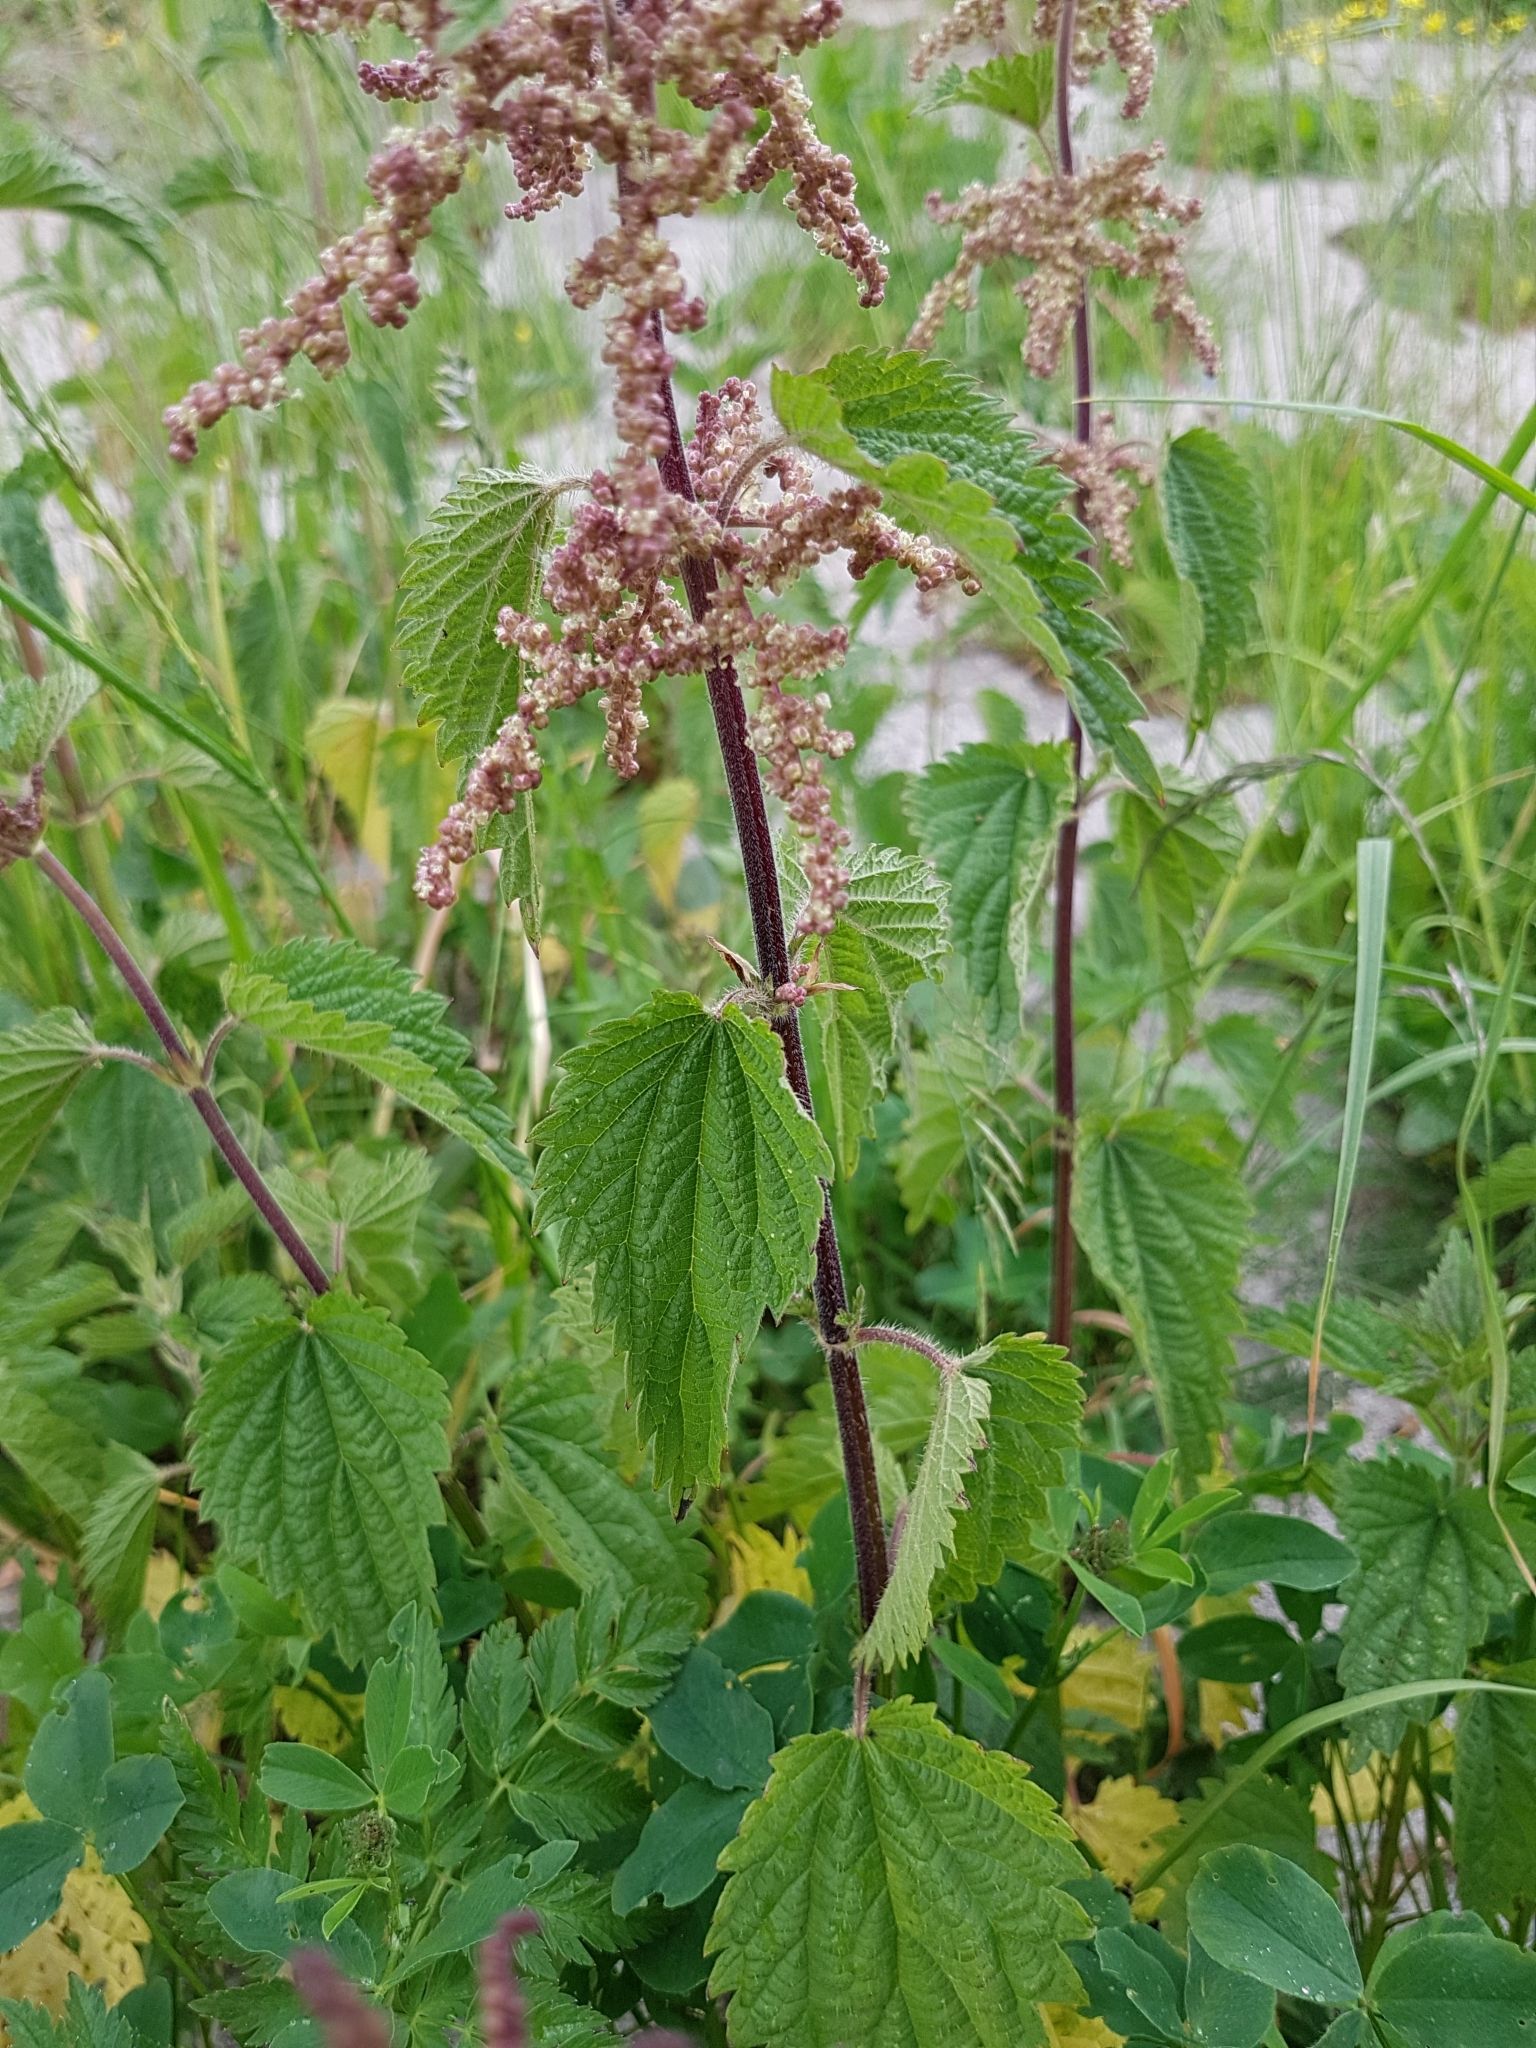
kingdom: Plantae
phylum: Tracheophyta
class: Magnoliopsida
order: Rosales
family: Urticaceae
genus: Urtica
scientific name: Urtica dioica
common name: Common nettle
